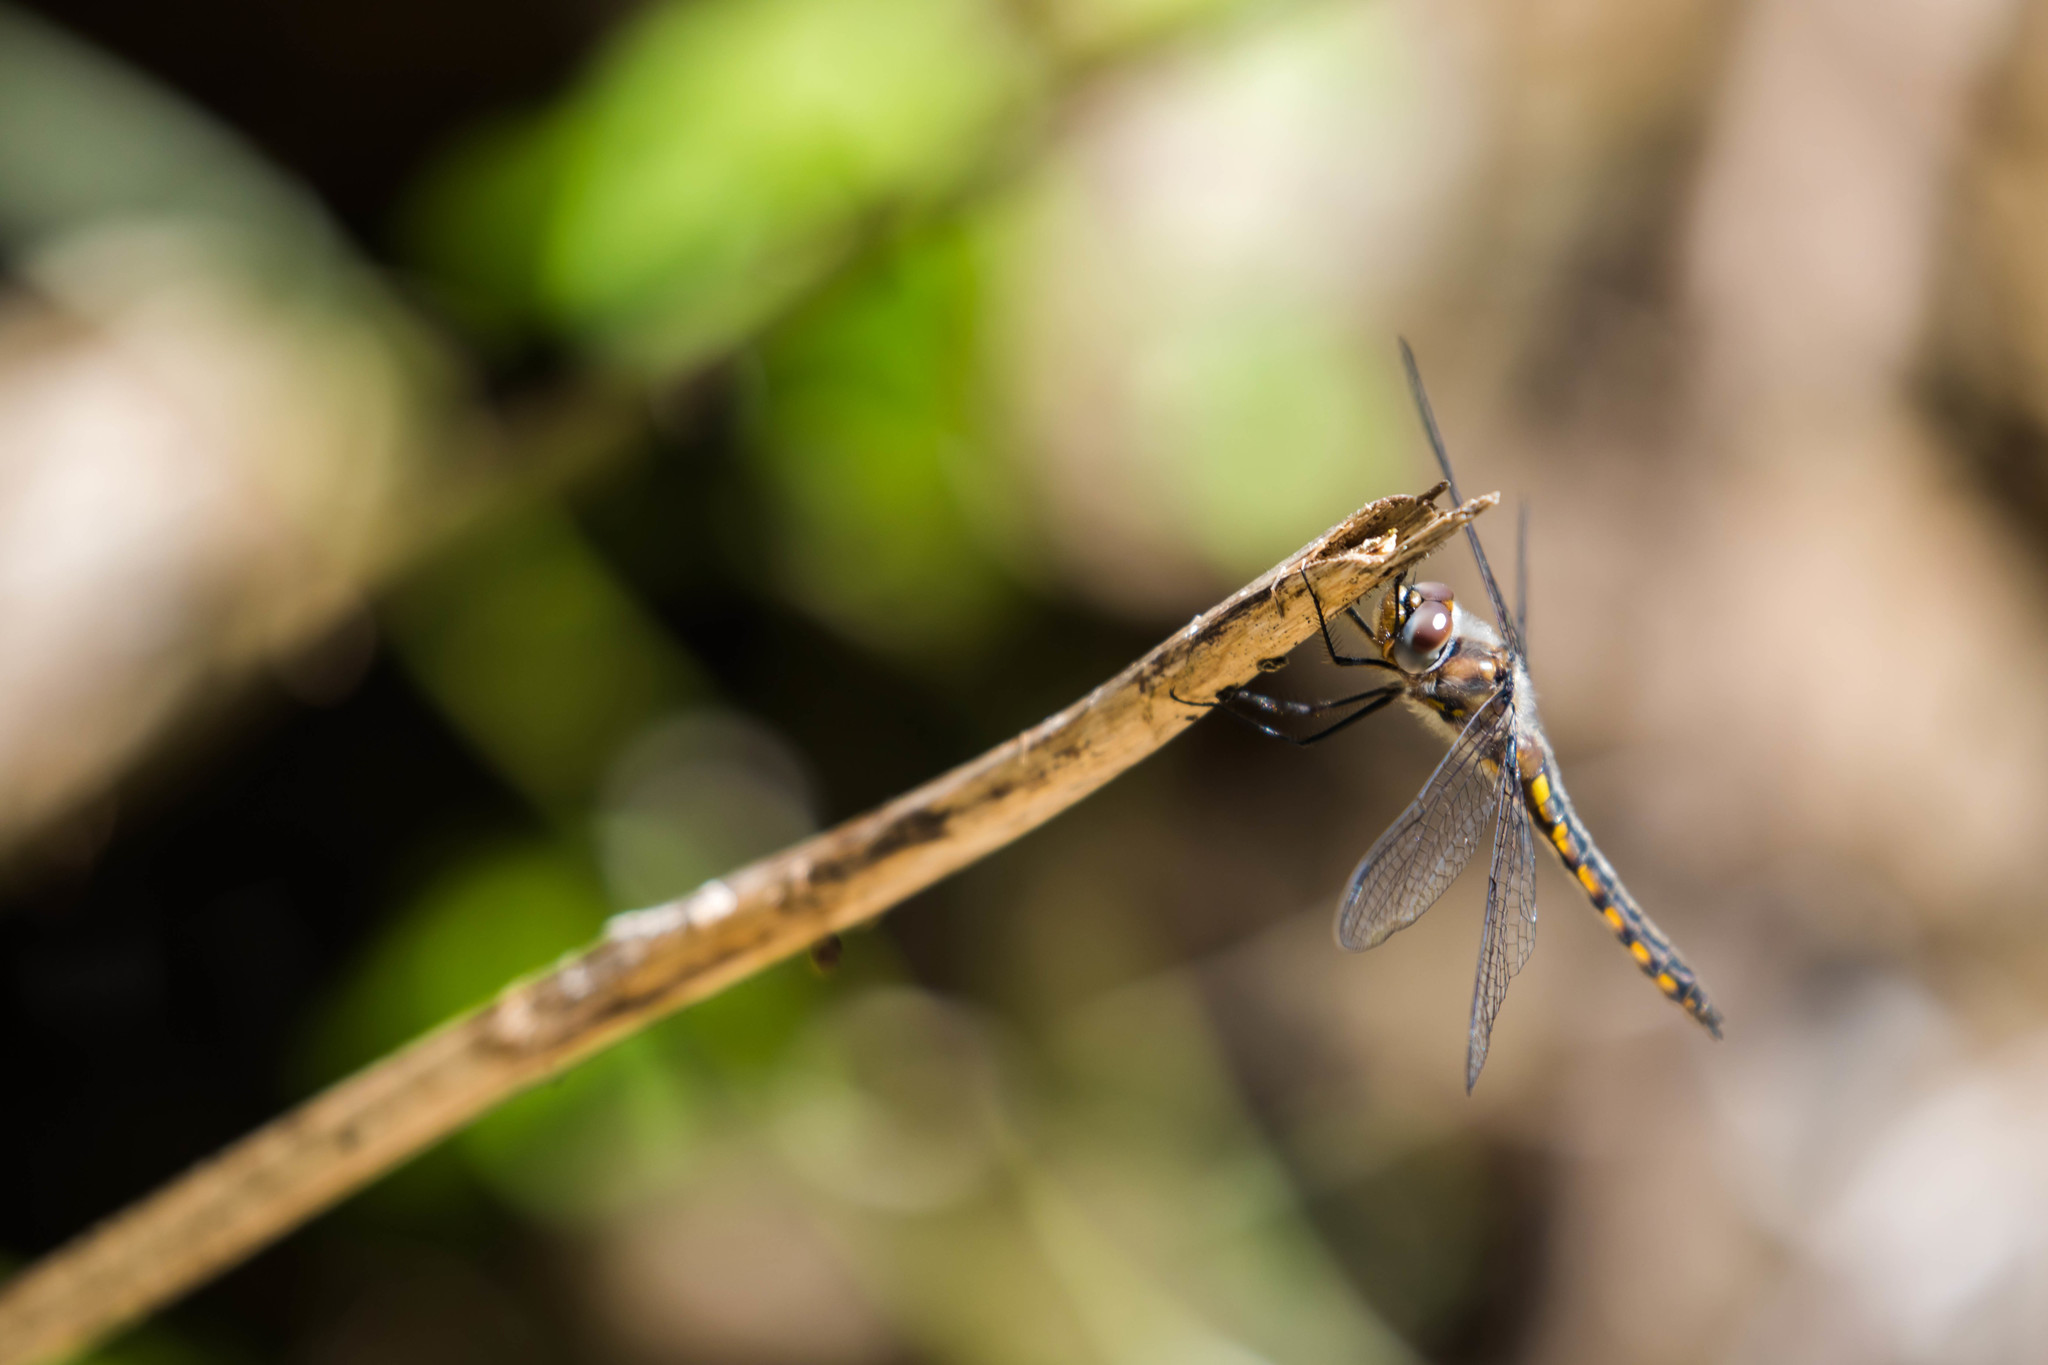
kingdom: Animalia
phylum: Arthropoda
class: Insecta
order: Odonata
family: Corduliidae
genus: Epitheca
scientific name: Epitheca cynosura
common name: Common baskettail
